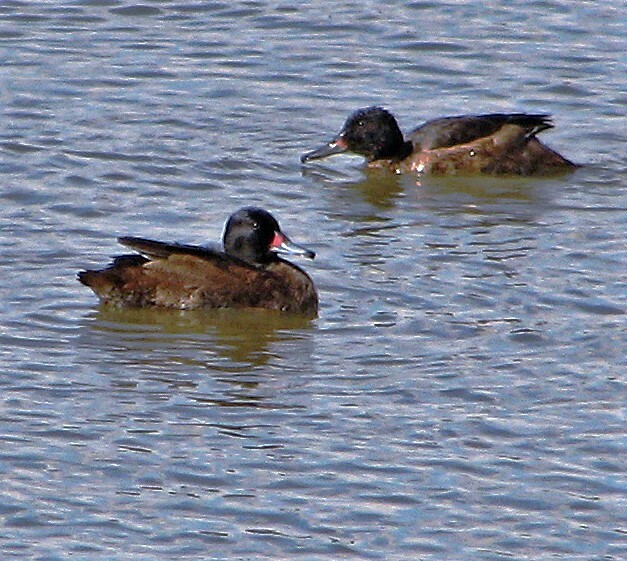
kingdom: Animalia
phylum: Chordata
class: Aves
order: Anseriformes
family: Anatidae
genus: Heteronetta
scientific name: Heteronetta atricapilla
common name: Black-headed duck
